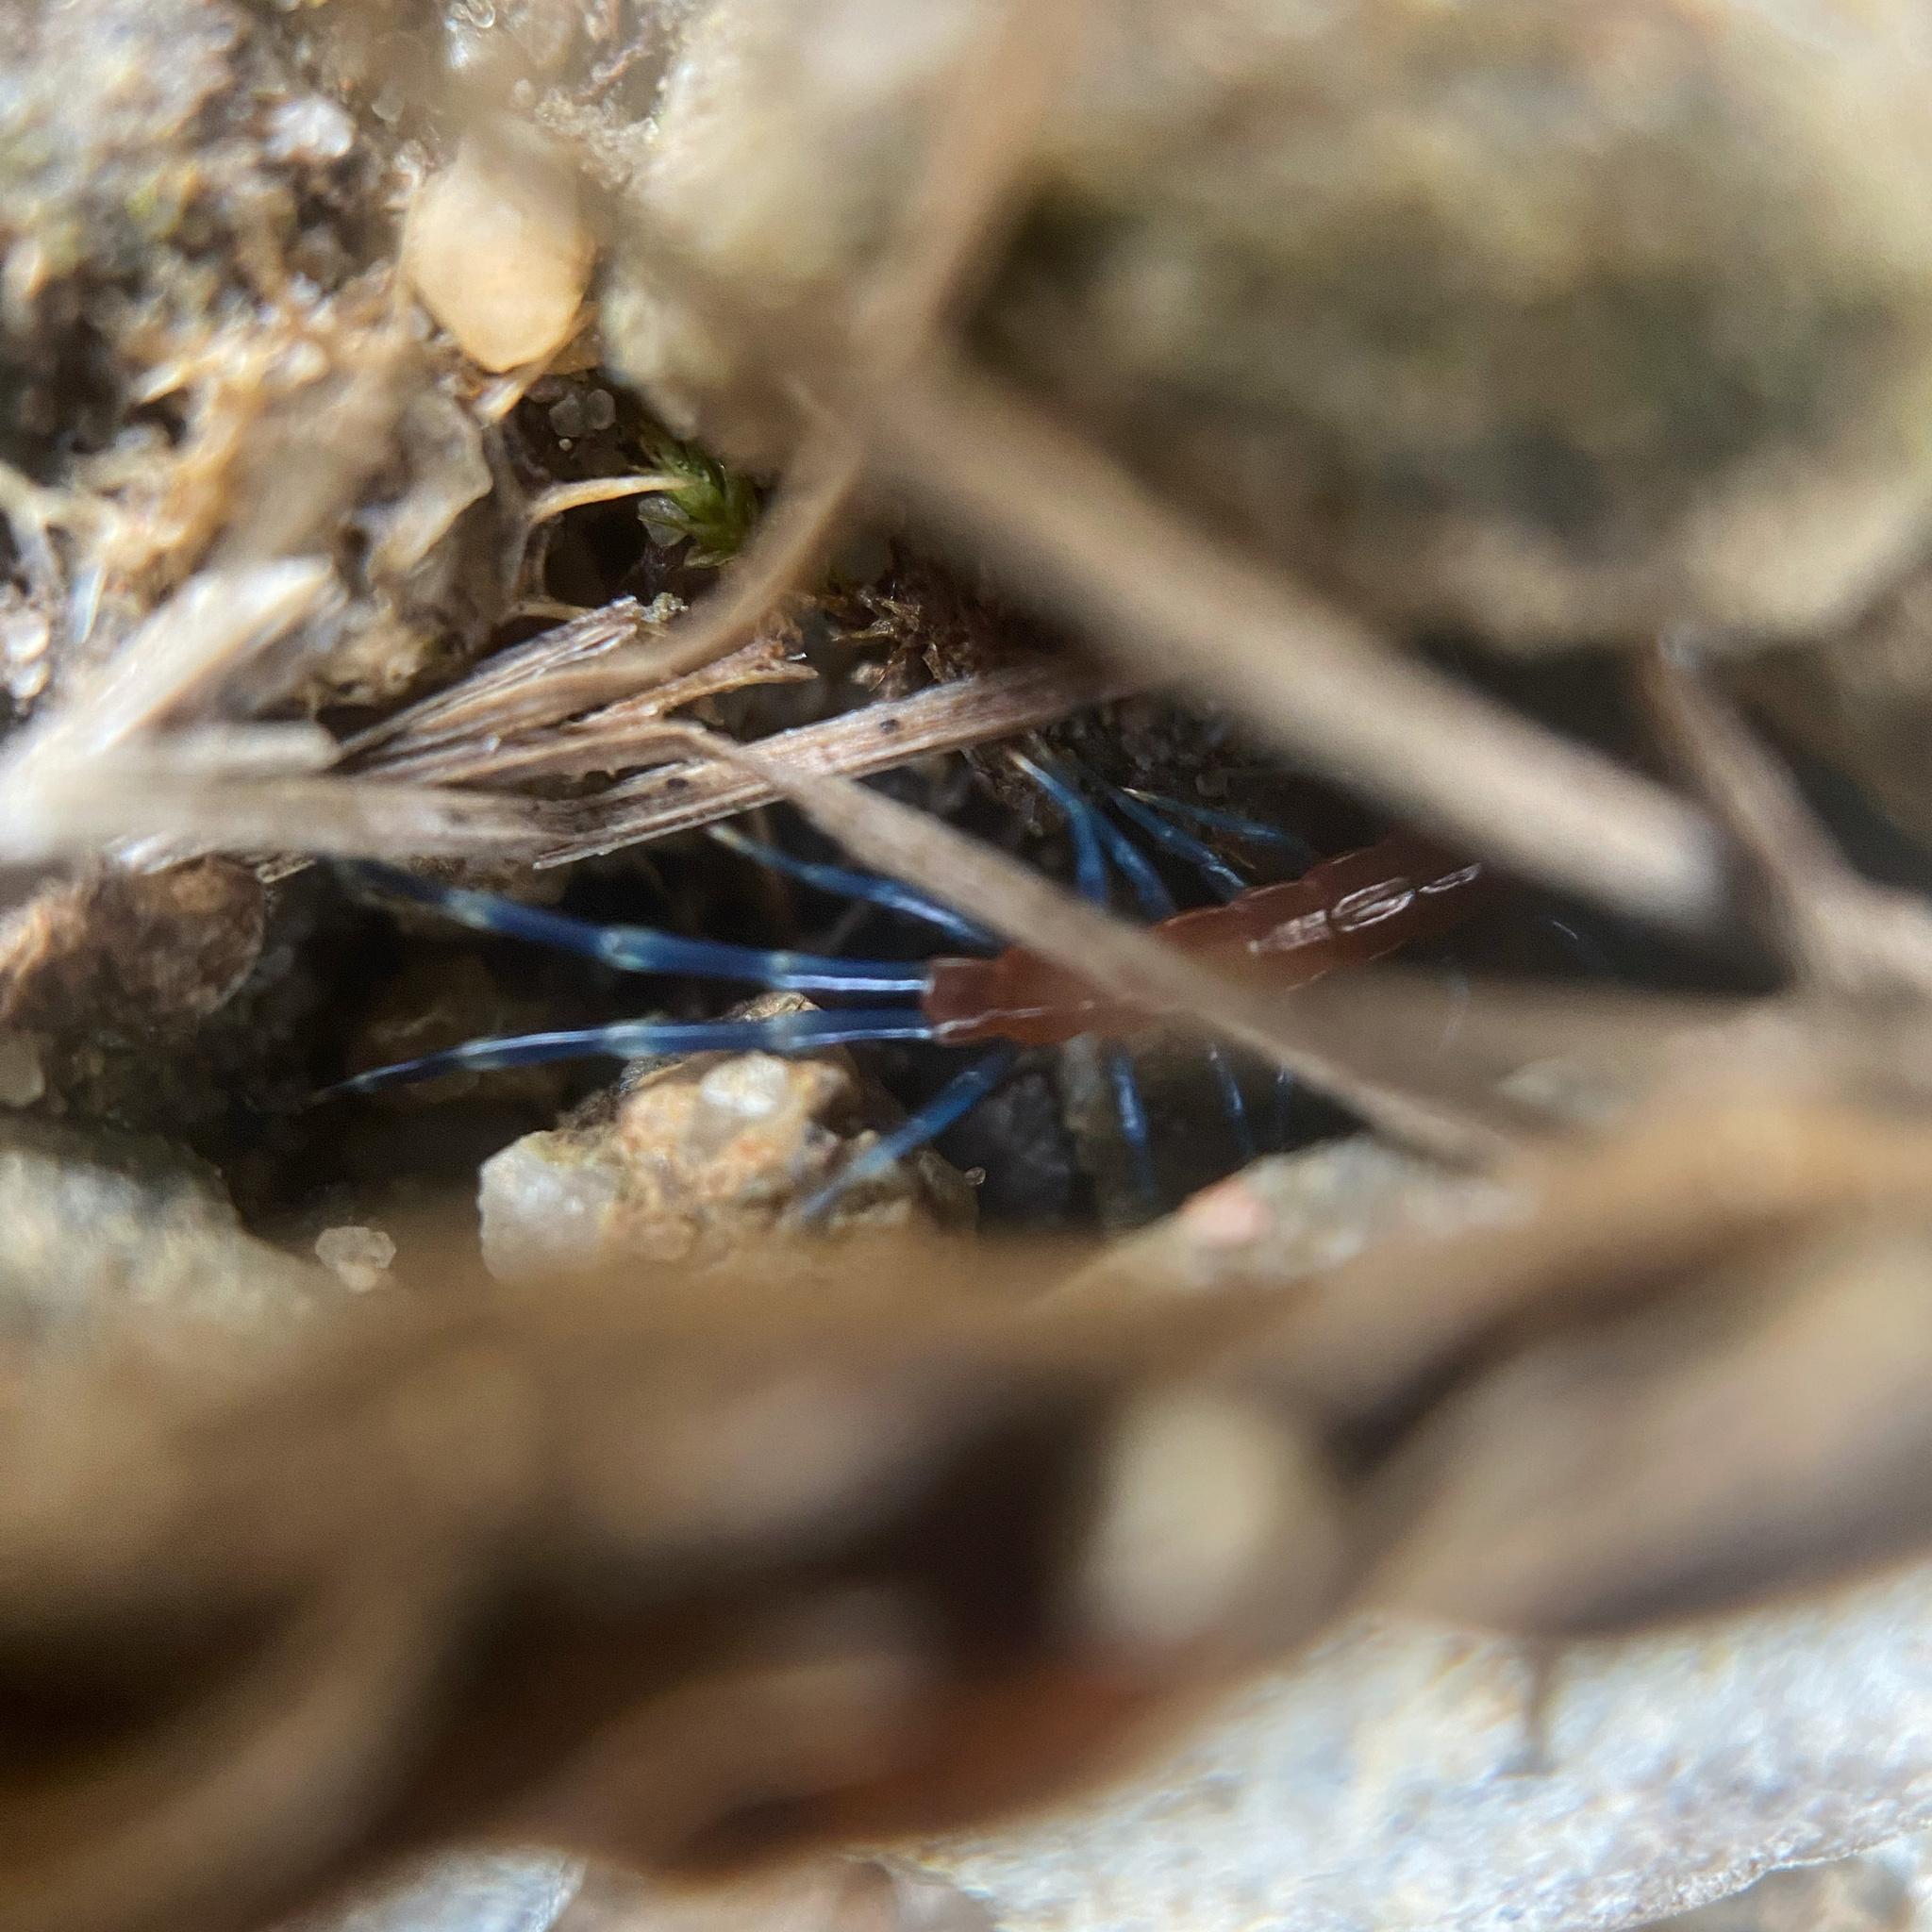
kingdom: Animalia
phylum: Arthropoda
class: Chilopoda
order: Scolopendromorpha
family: Scolopendridae
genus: Rhysida
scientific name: Rhysida nuda
